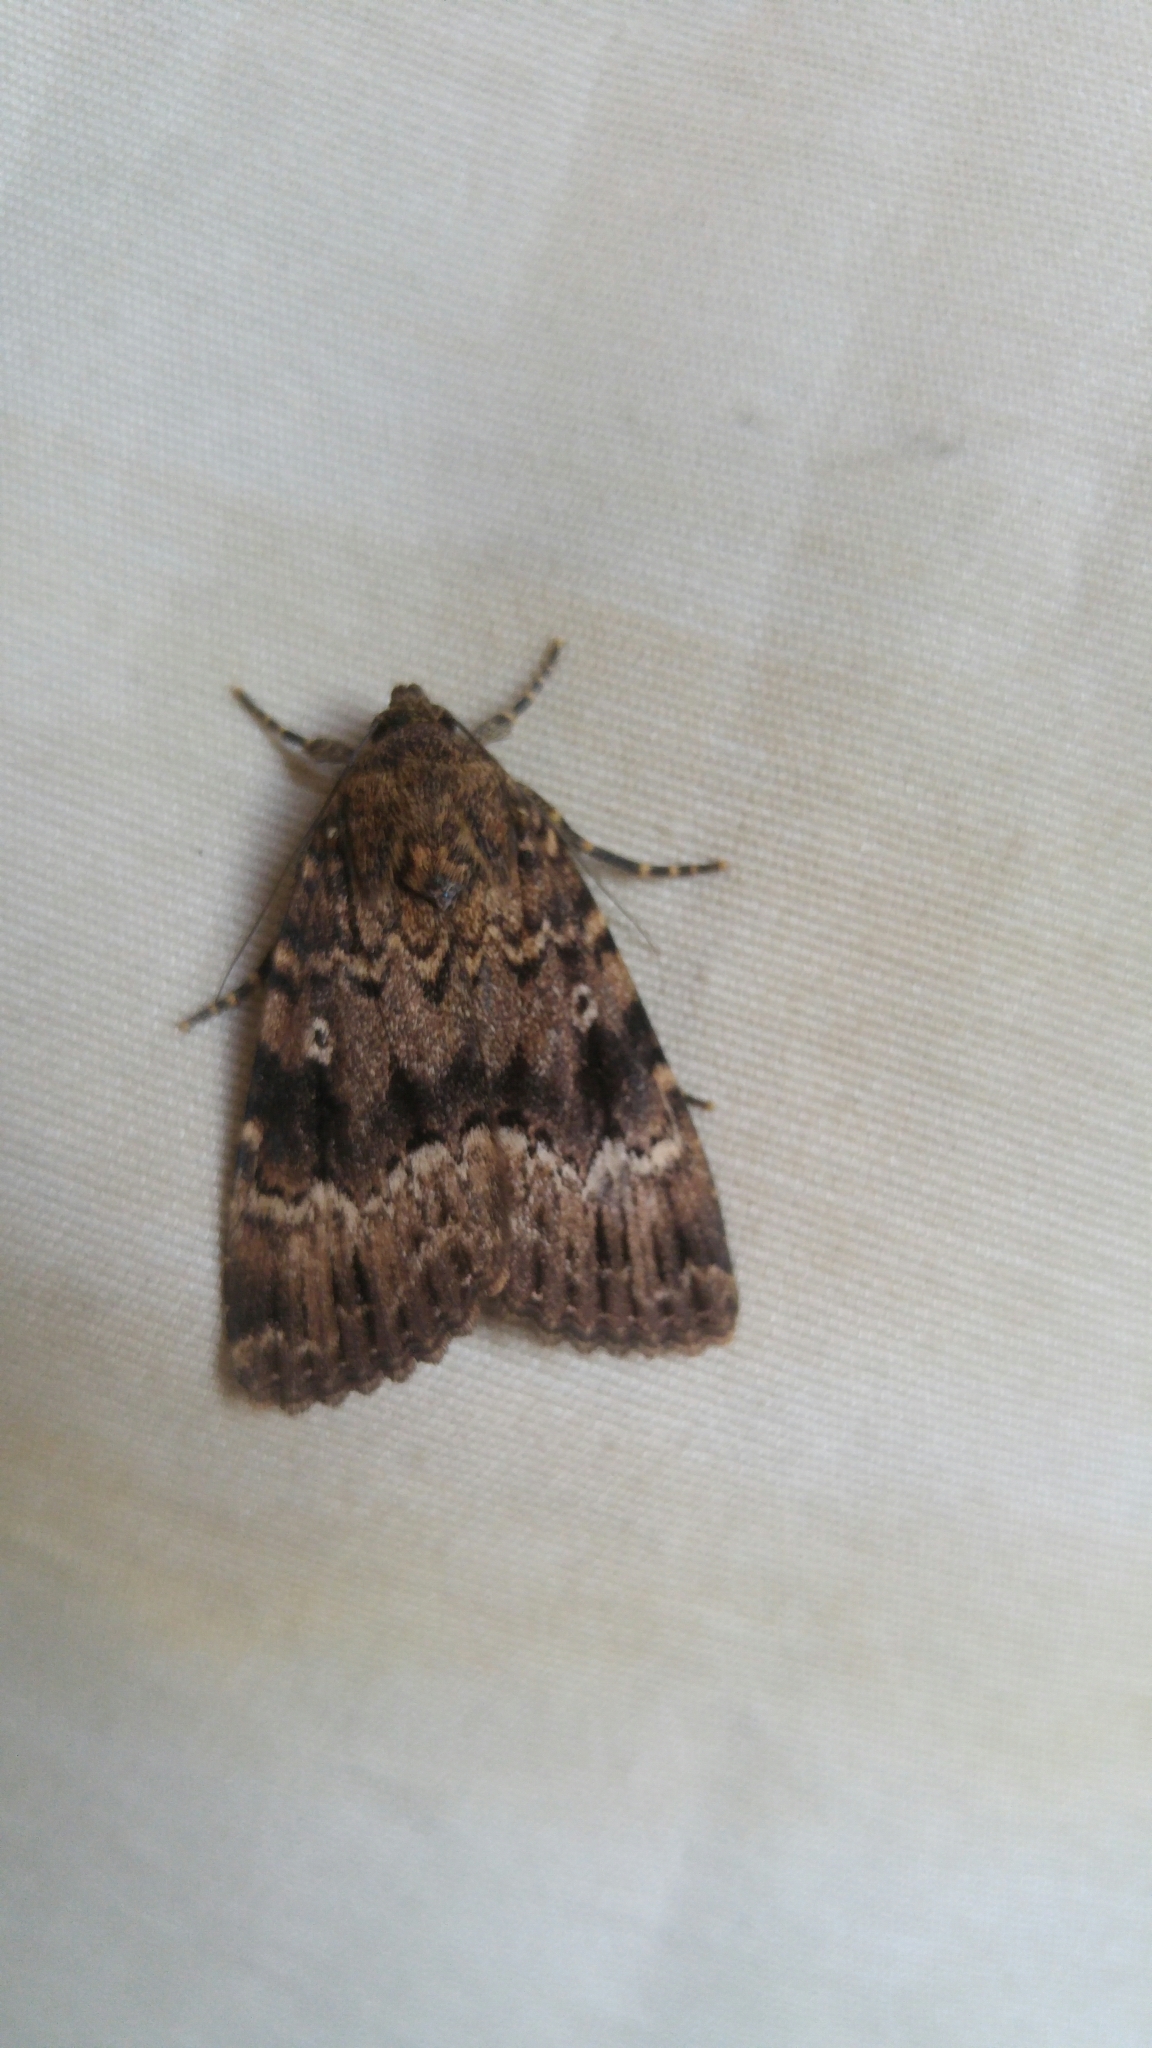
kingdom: Animalia
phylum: Arthropoda
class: Insecta
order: Lepidoptera
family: Noctuidae
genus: Amphipyra
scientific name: Amphipyra pyramidea
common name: Copper underwing
